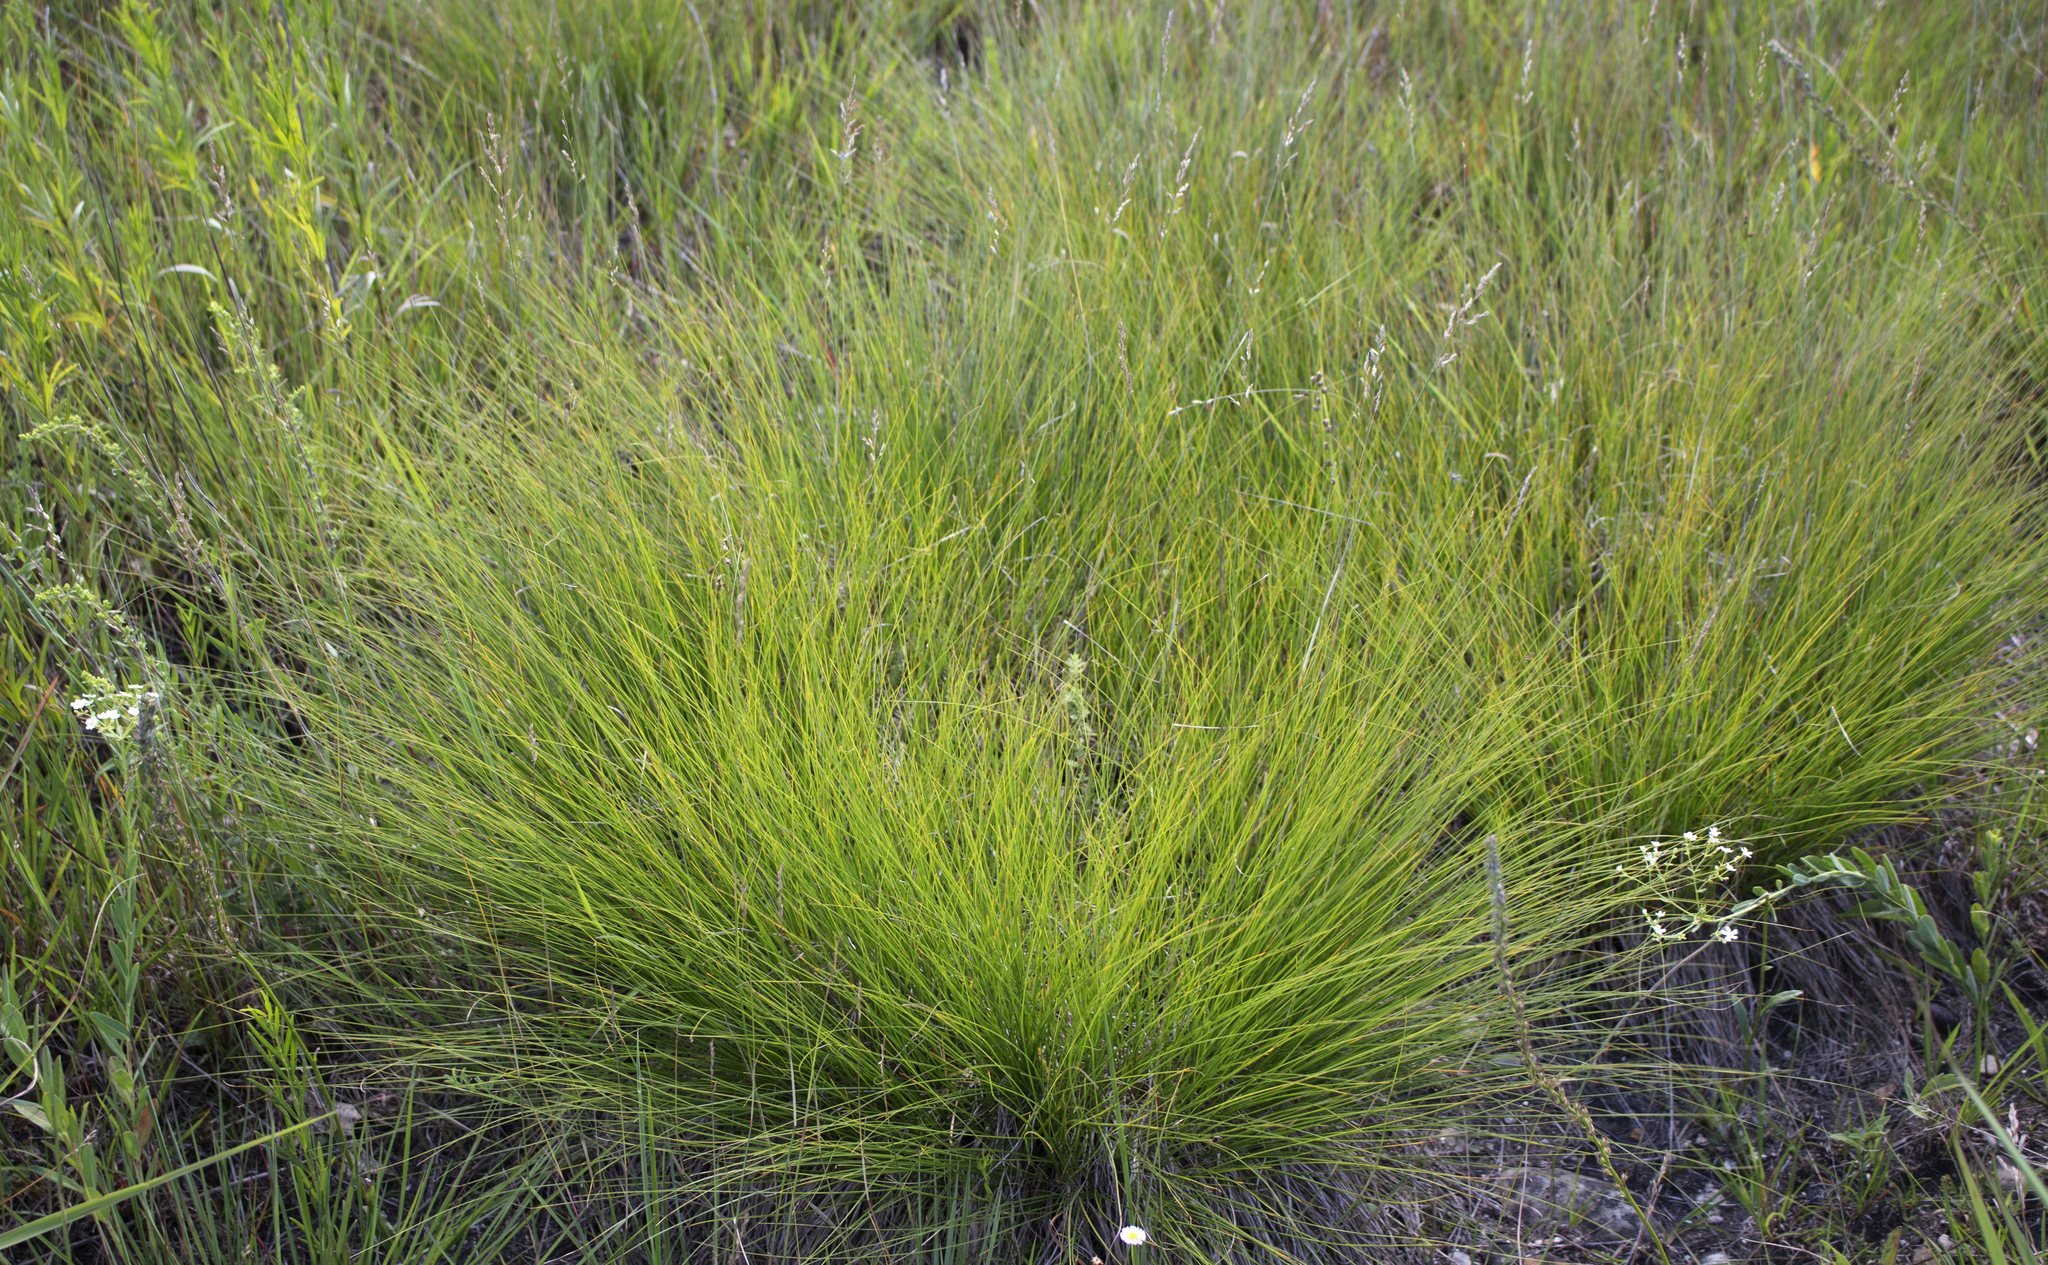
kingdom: Plantae
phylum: Tracheophyta
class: Liliopsida
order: Poales
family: Poaceae
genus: Sporobolus
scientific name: Sporobolus heterolepis
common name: Prairie dropseed
